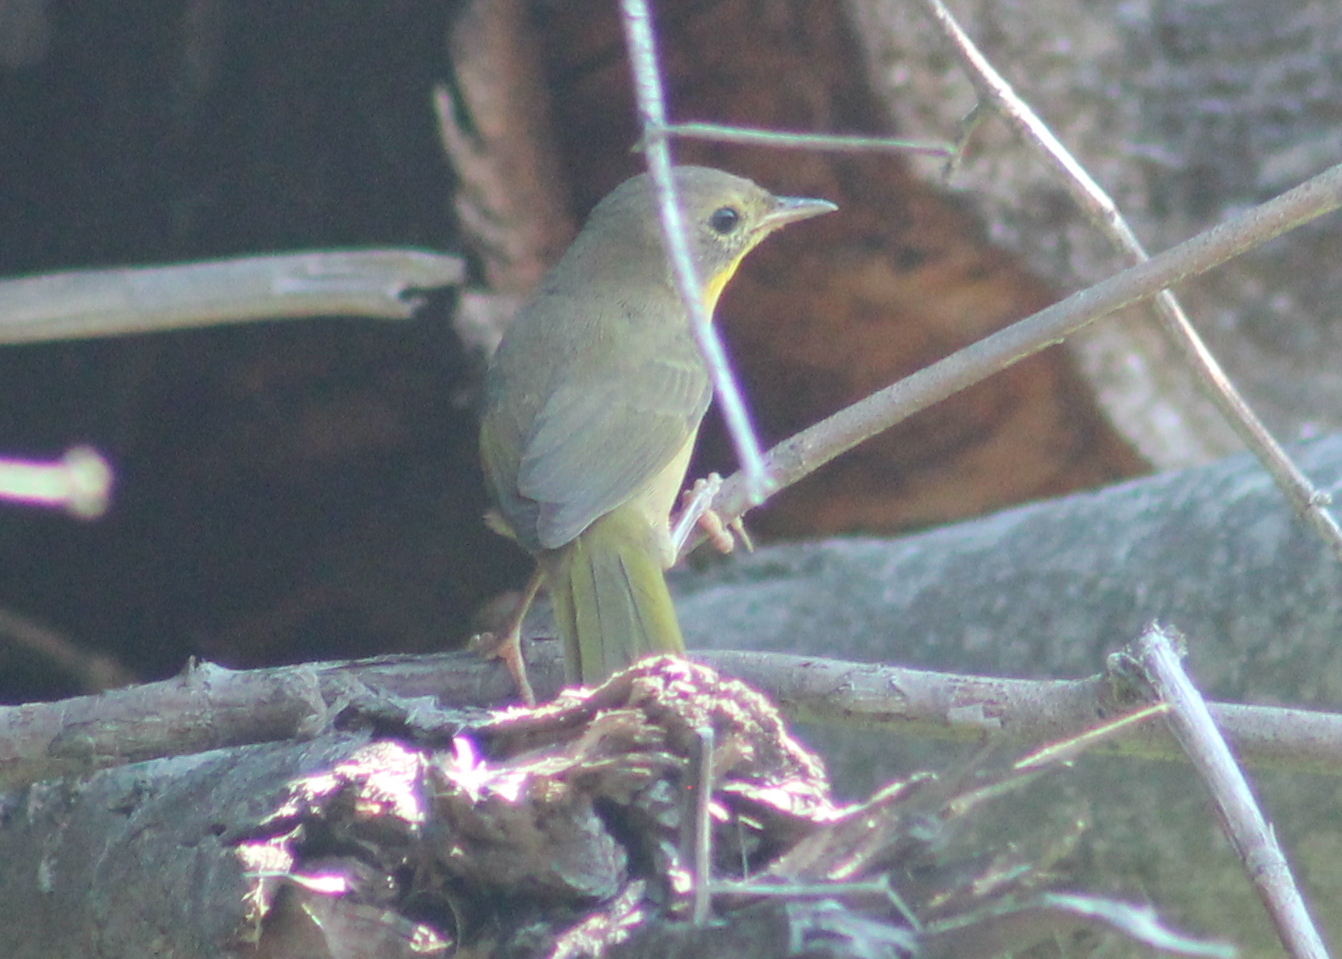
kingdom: Animalia
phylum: Chordata
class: Aves
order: Passeriformes
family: Parulidae
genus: Geothlypis
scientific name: Geothlypis trichas
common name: Common yellowthroat
